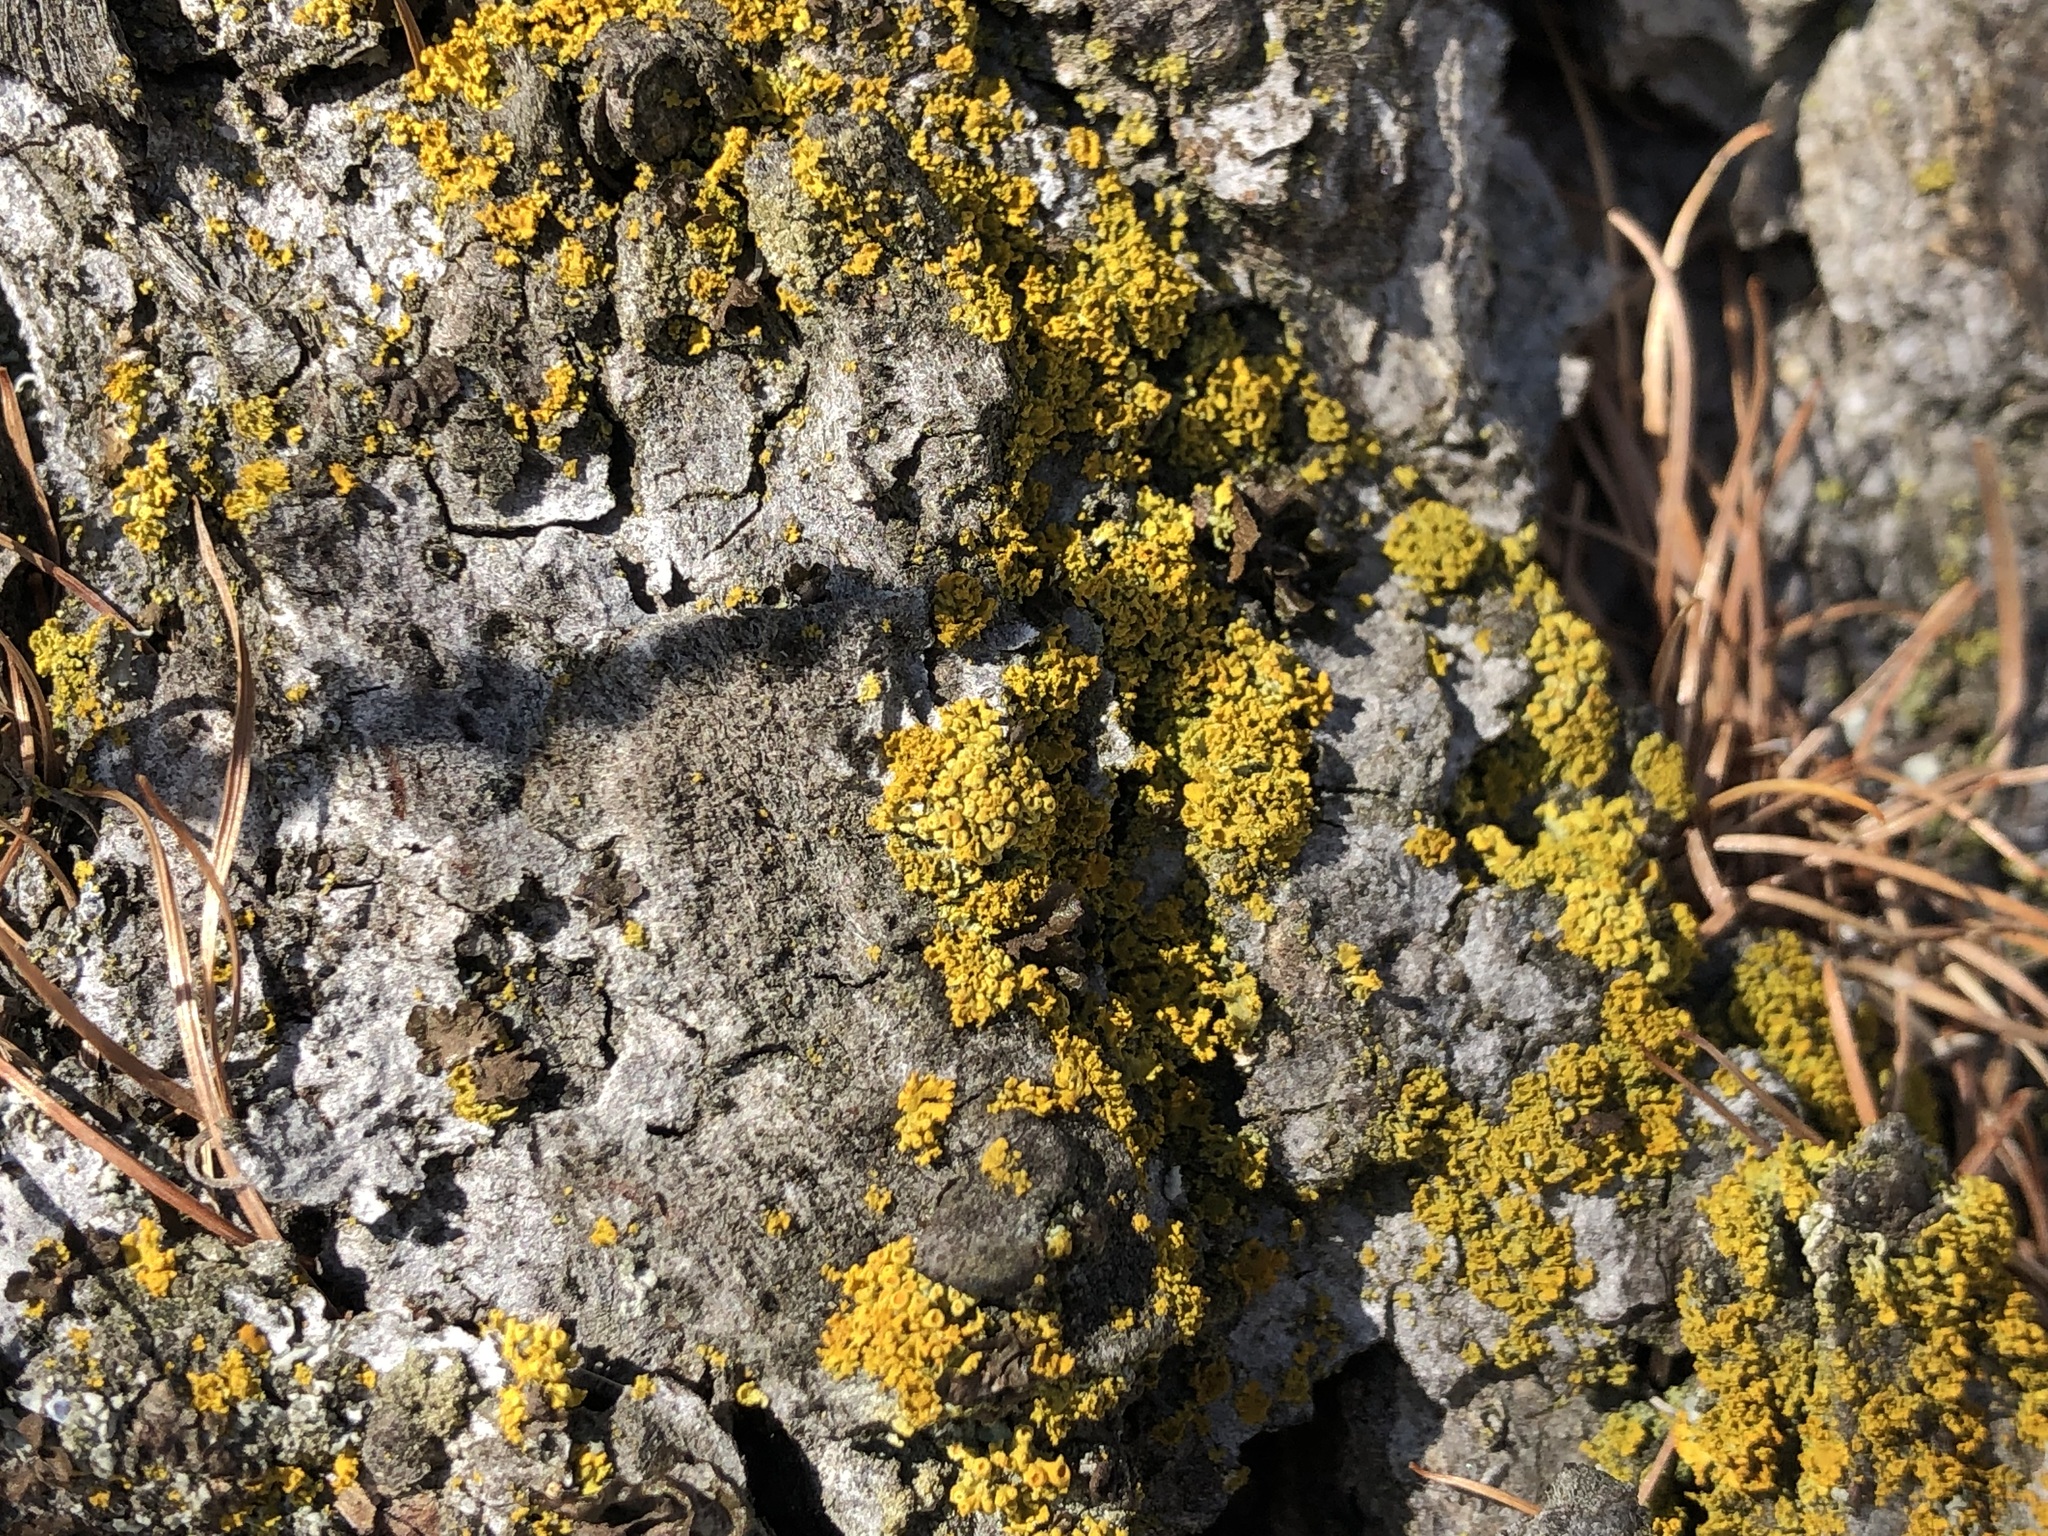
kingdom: Fungi
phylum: Ascomycota
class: Lecanoromycetes
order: Teloschistales
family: Teloschistaceae
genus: Polycauliona
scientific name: Polycauliona polycarpa
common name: Pin-cushion sunburst lichen
